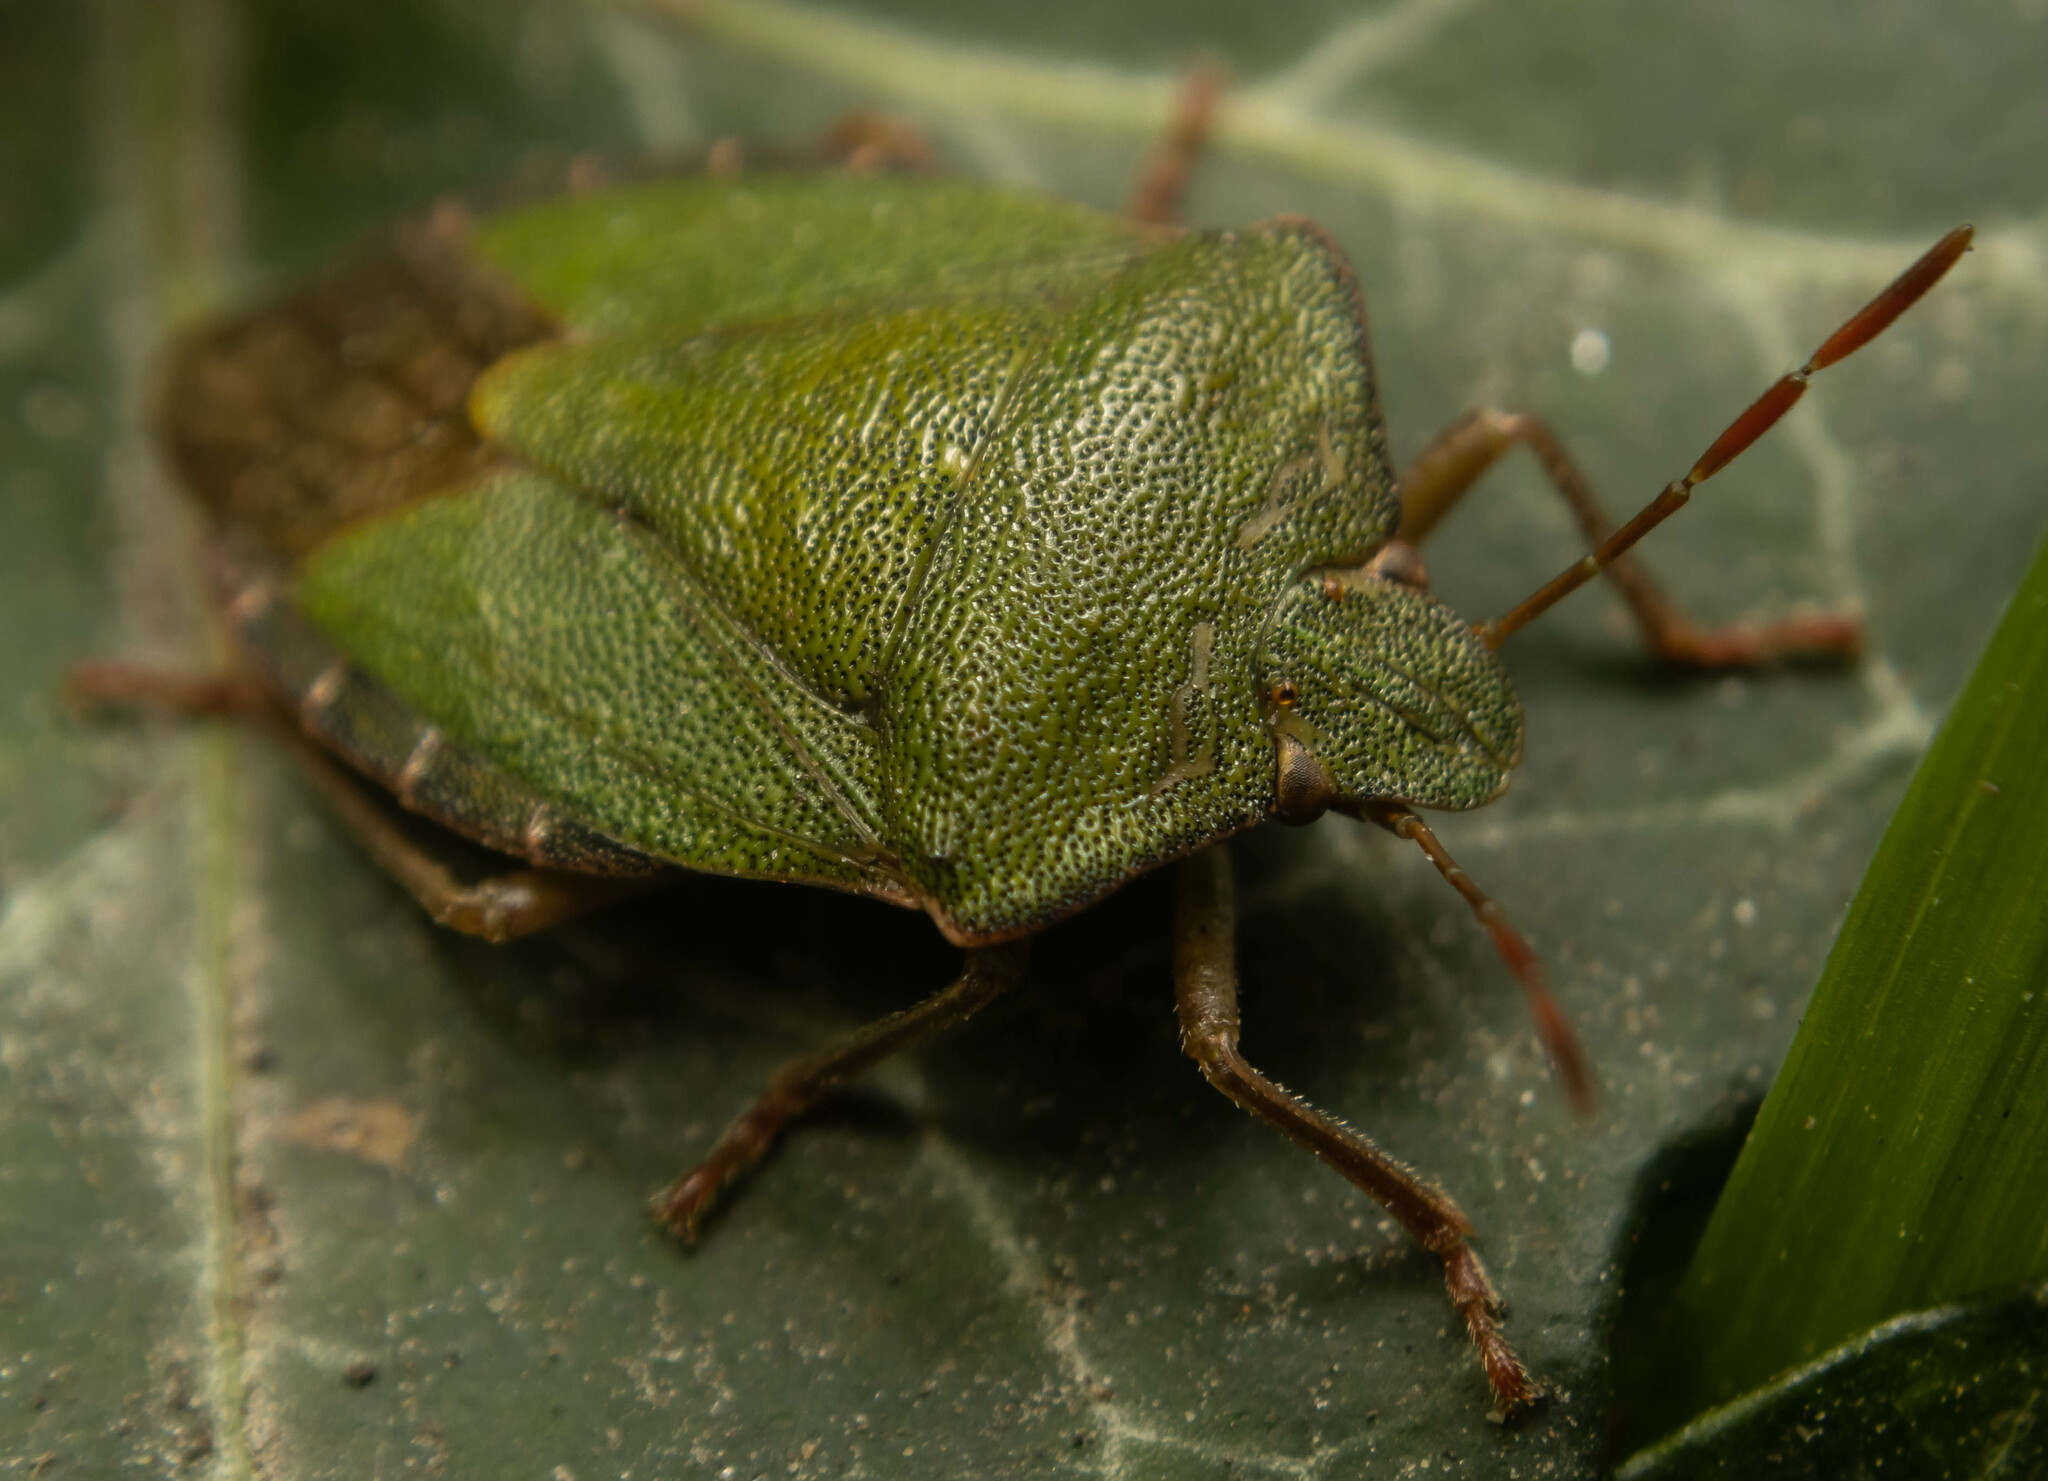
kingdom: Animalia
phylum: Arthropoda
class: Insecta
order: Hemiptera
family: Pentatomidae
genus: Palomena
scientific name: Palomena prasina
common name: Green shieldbug
